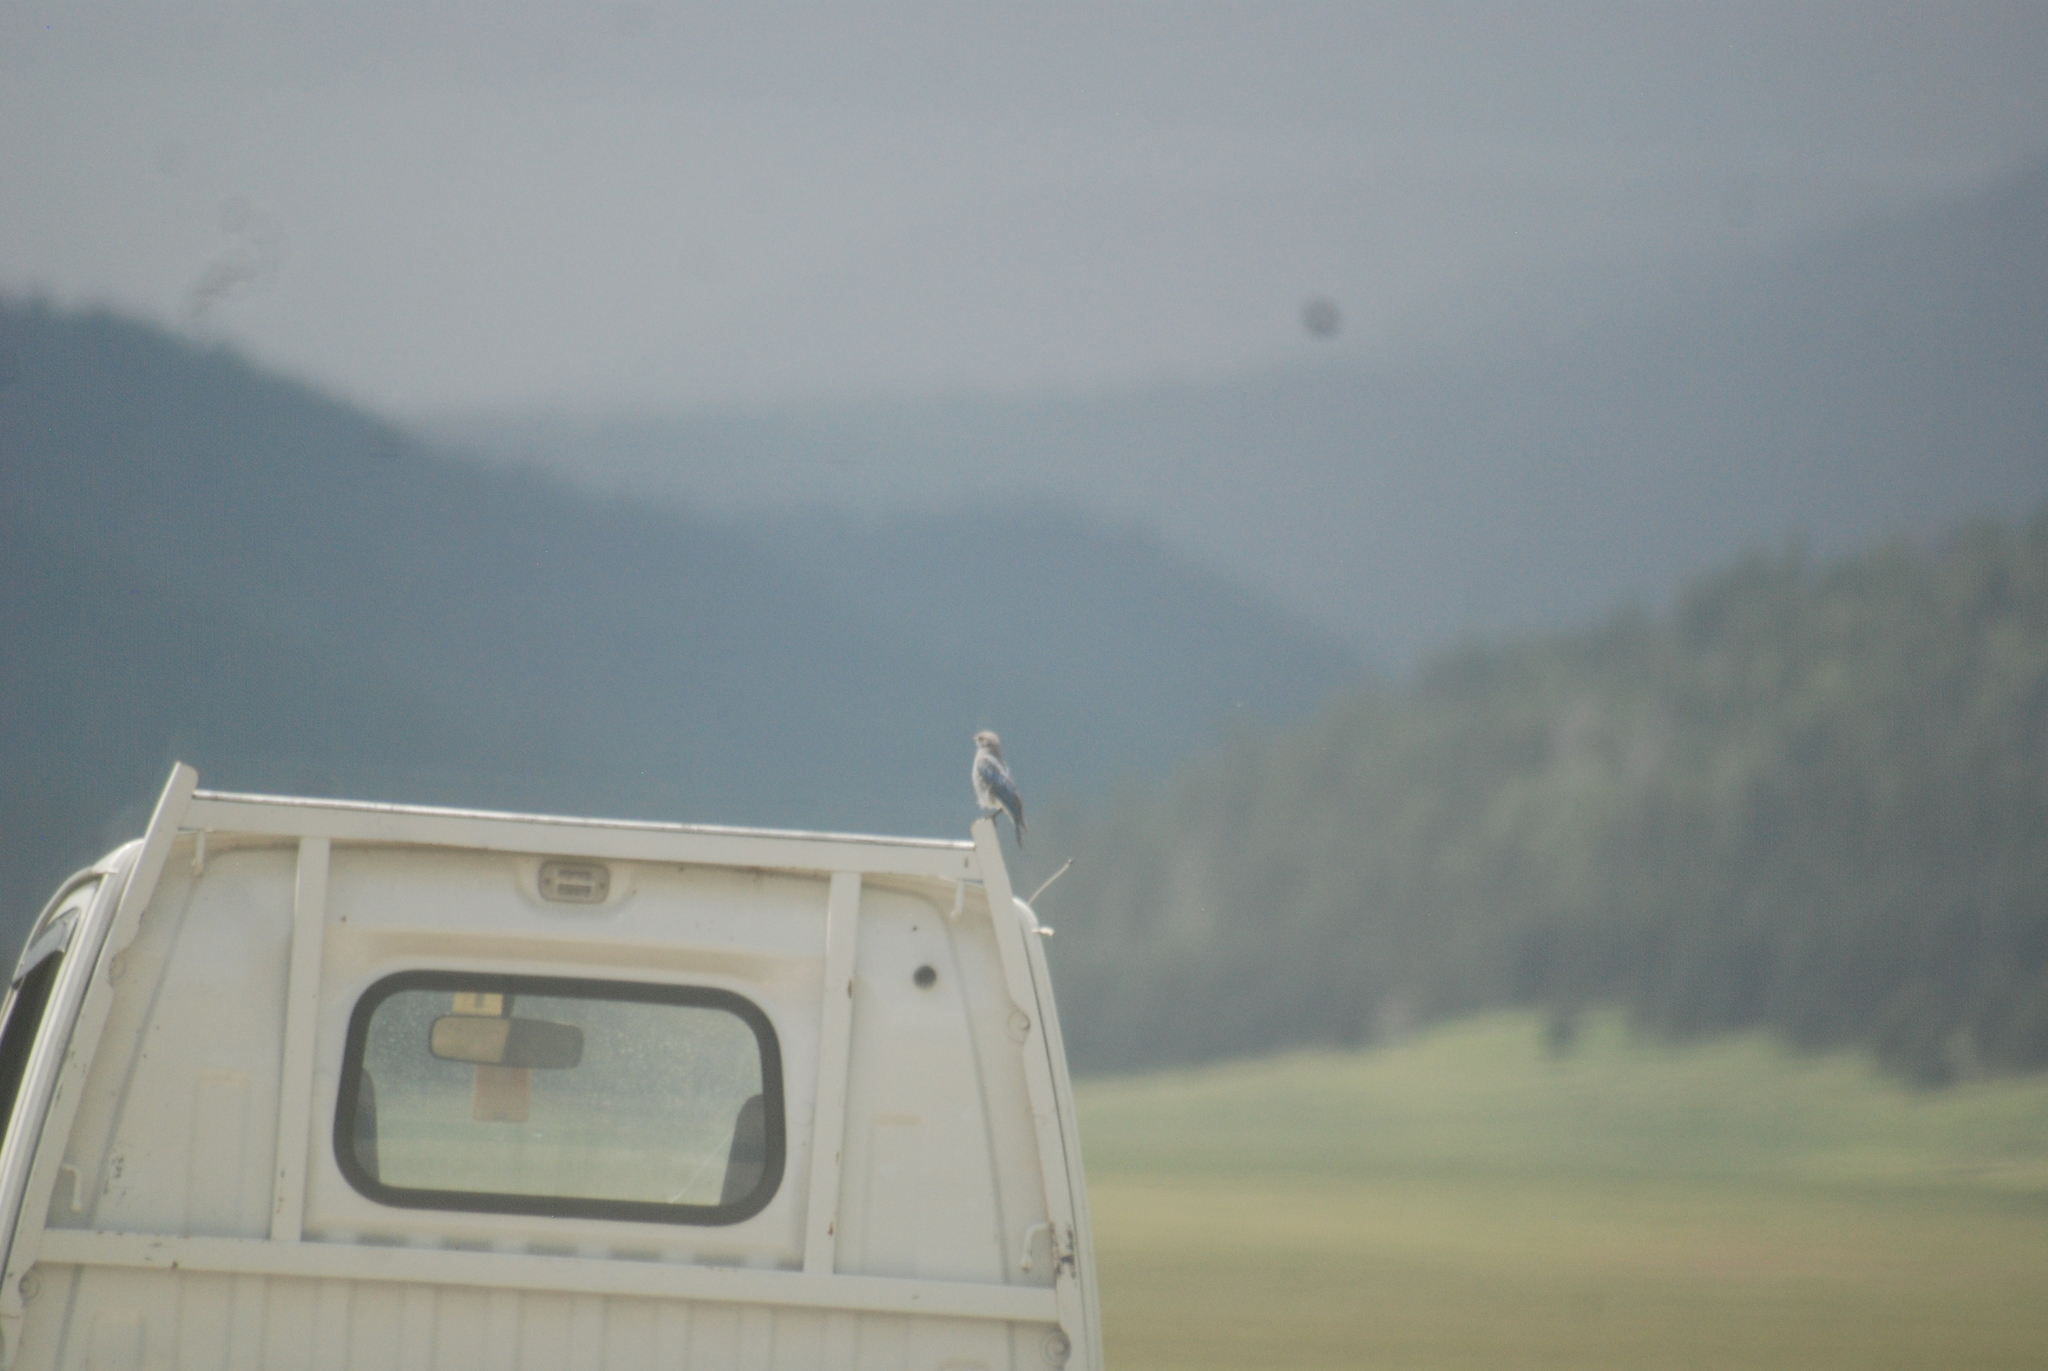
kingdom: Animalia
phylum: Chordata
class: Aves
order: Passeriformes
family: Turdidae
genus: Sialia
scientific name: Sialia currucoides
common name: Mountain bluebird
